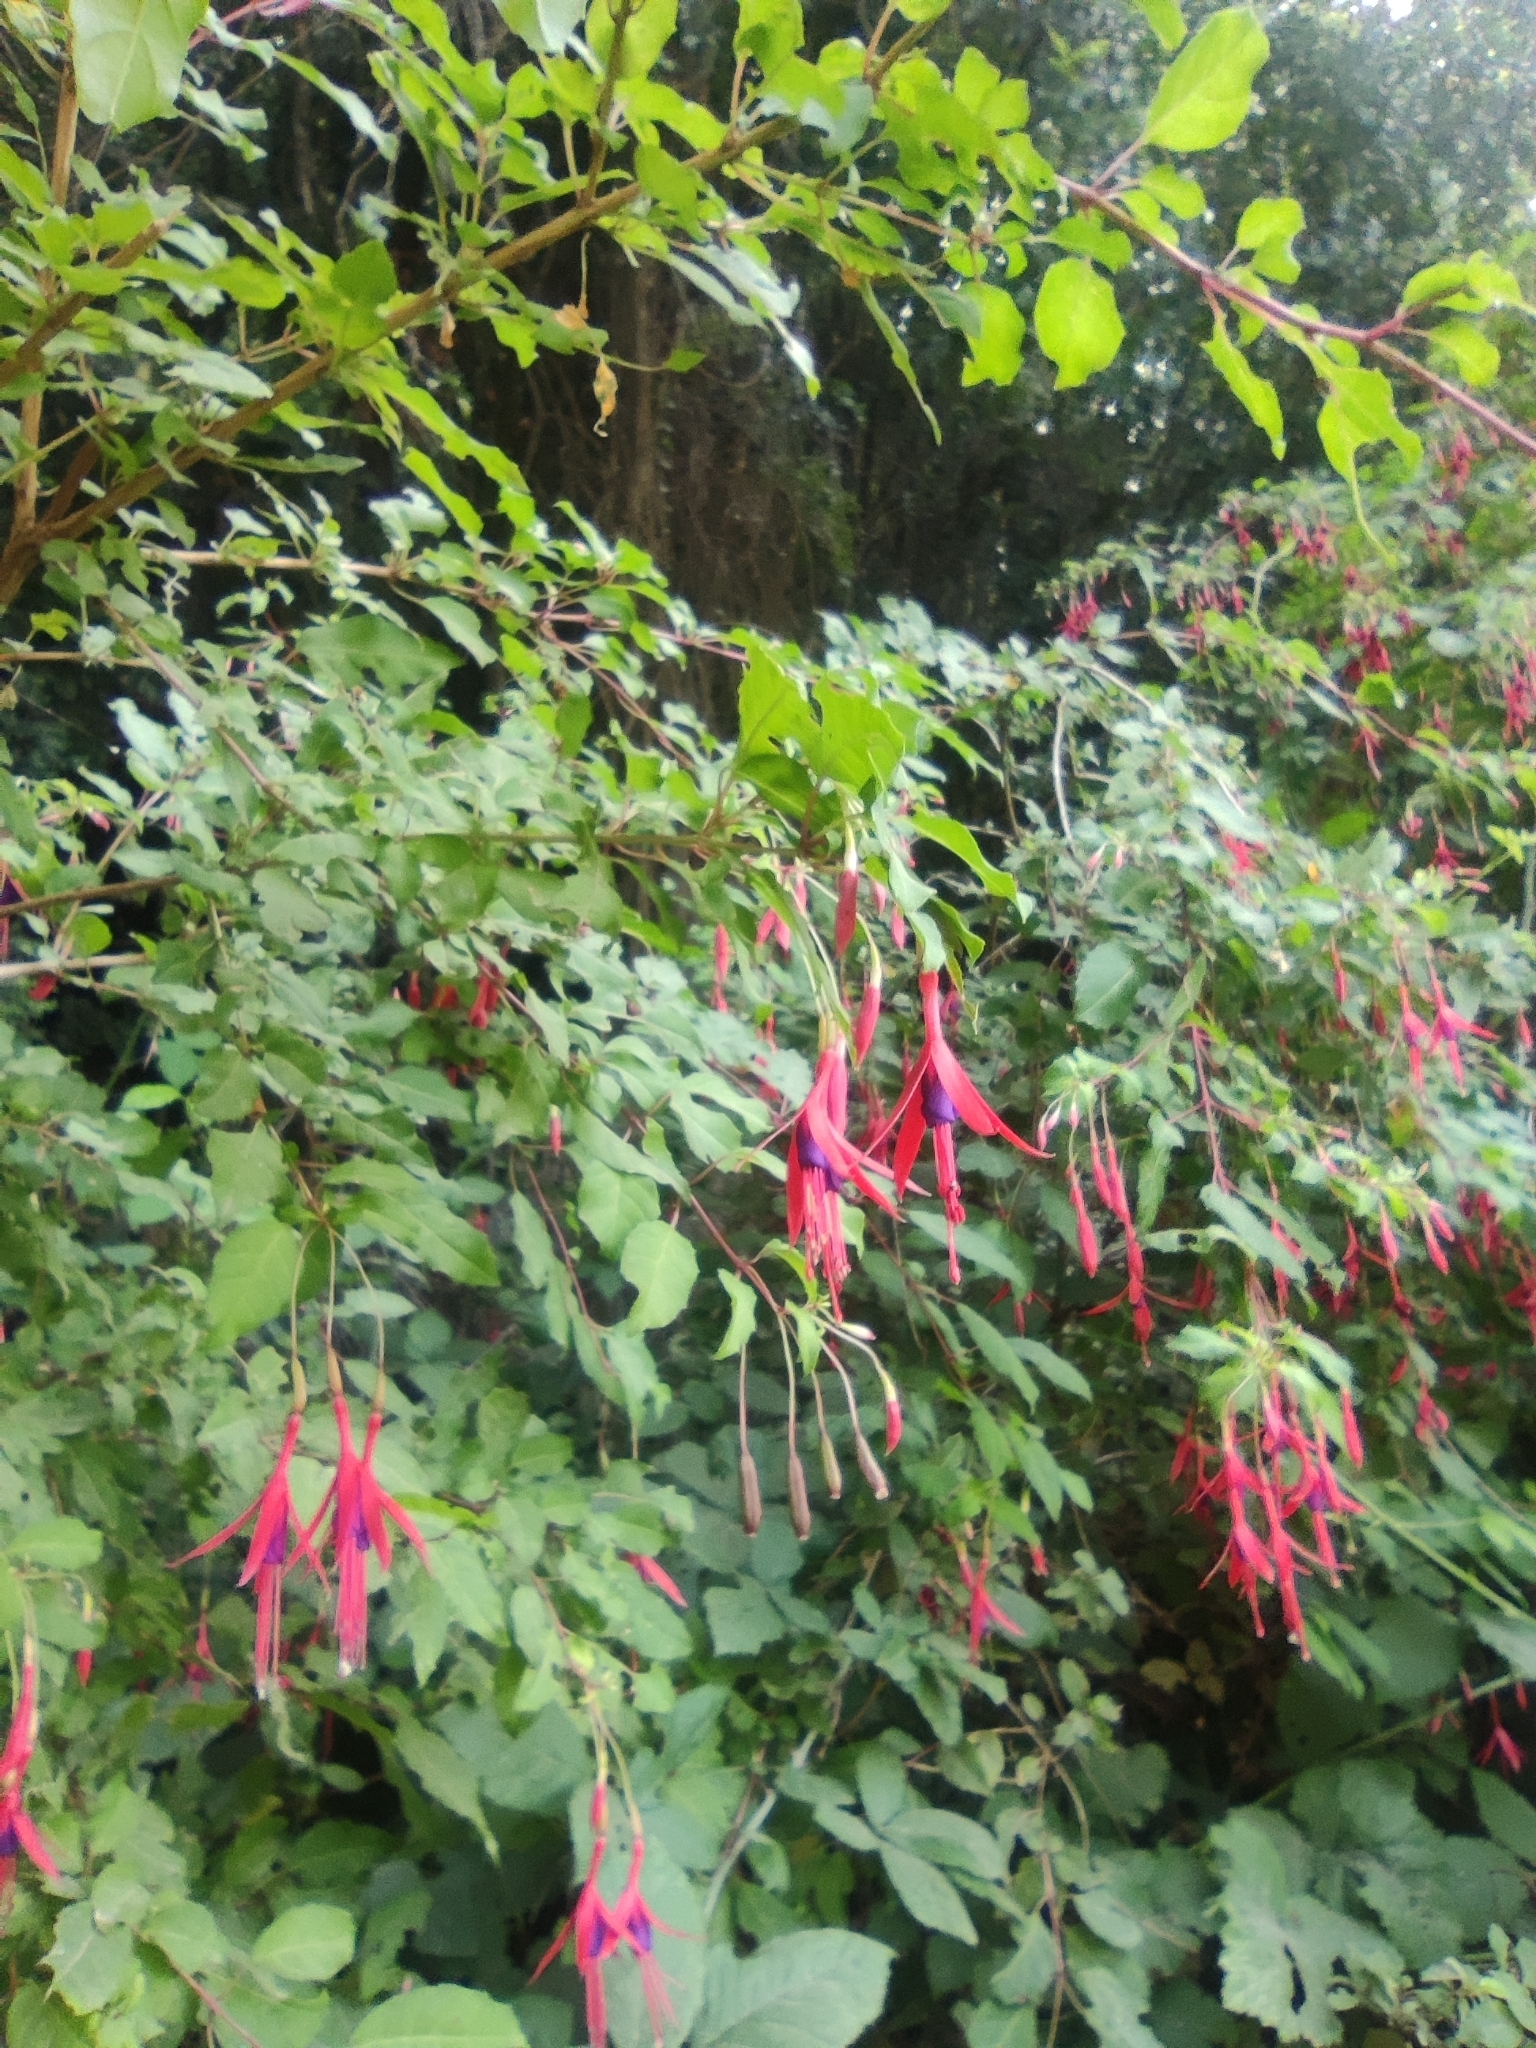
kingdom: Plantae
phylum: Tracheophyta
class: Magnoliopsida
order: Myrtales
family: Onagraceae
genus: Fuchsia
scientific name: Fuchsia magellanica
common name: Hardy fuchsia
